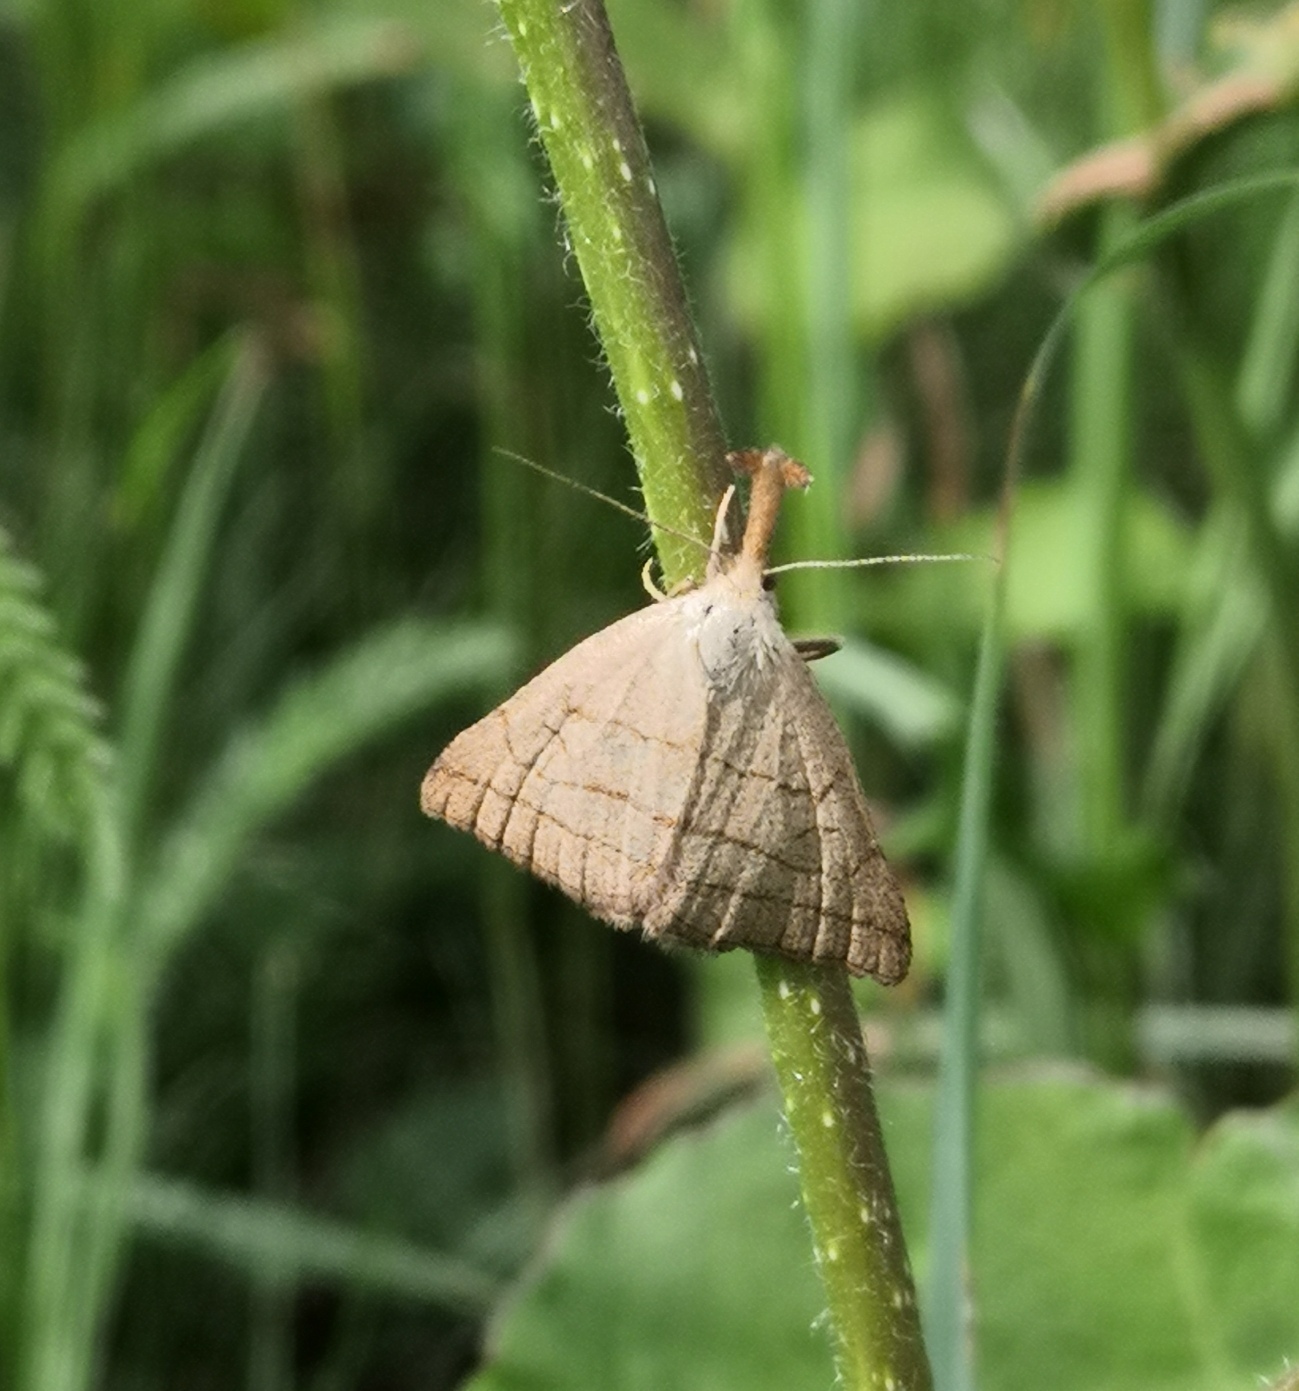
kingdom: Animalia
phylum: Arthropoda
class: Insecta
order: Lepidoptera
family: Erebidae
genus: Polypogon
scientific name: Polypogon tentacularia
